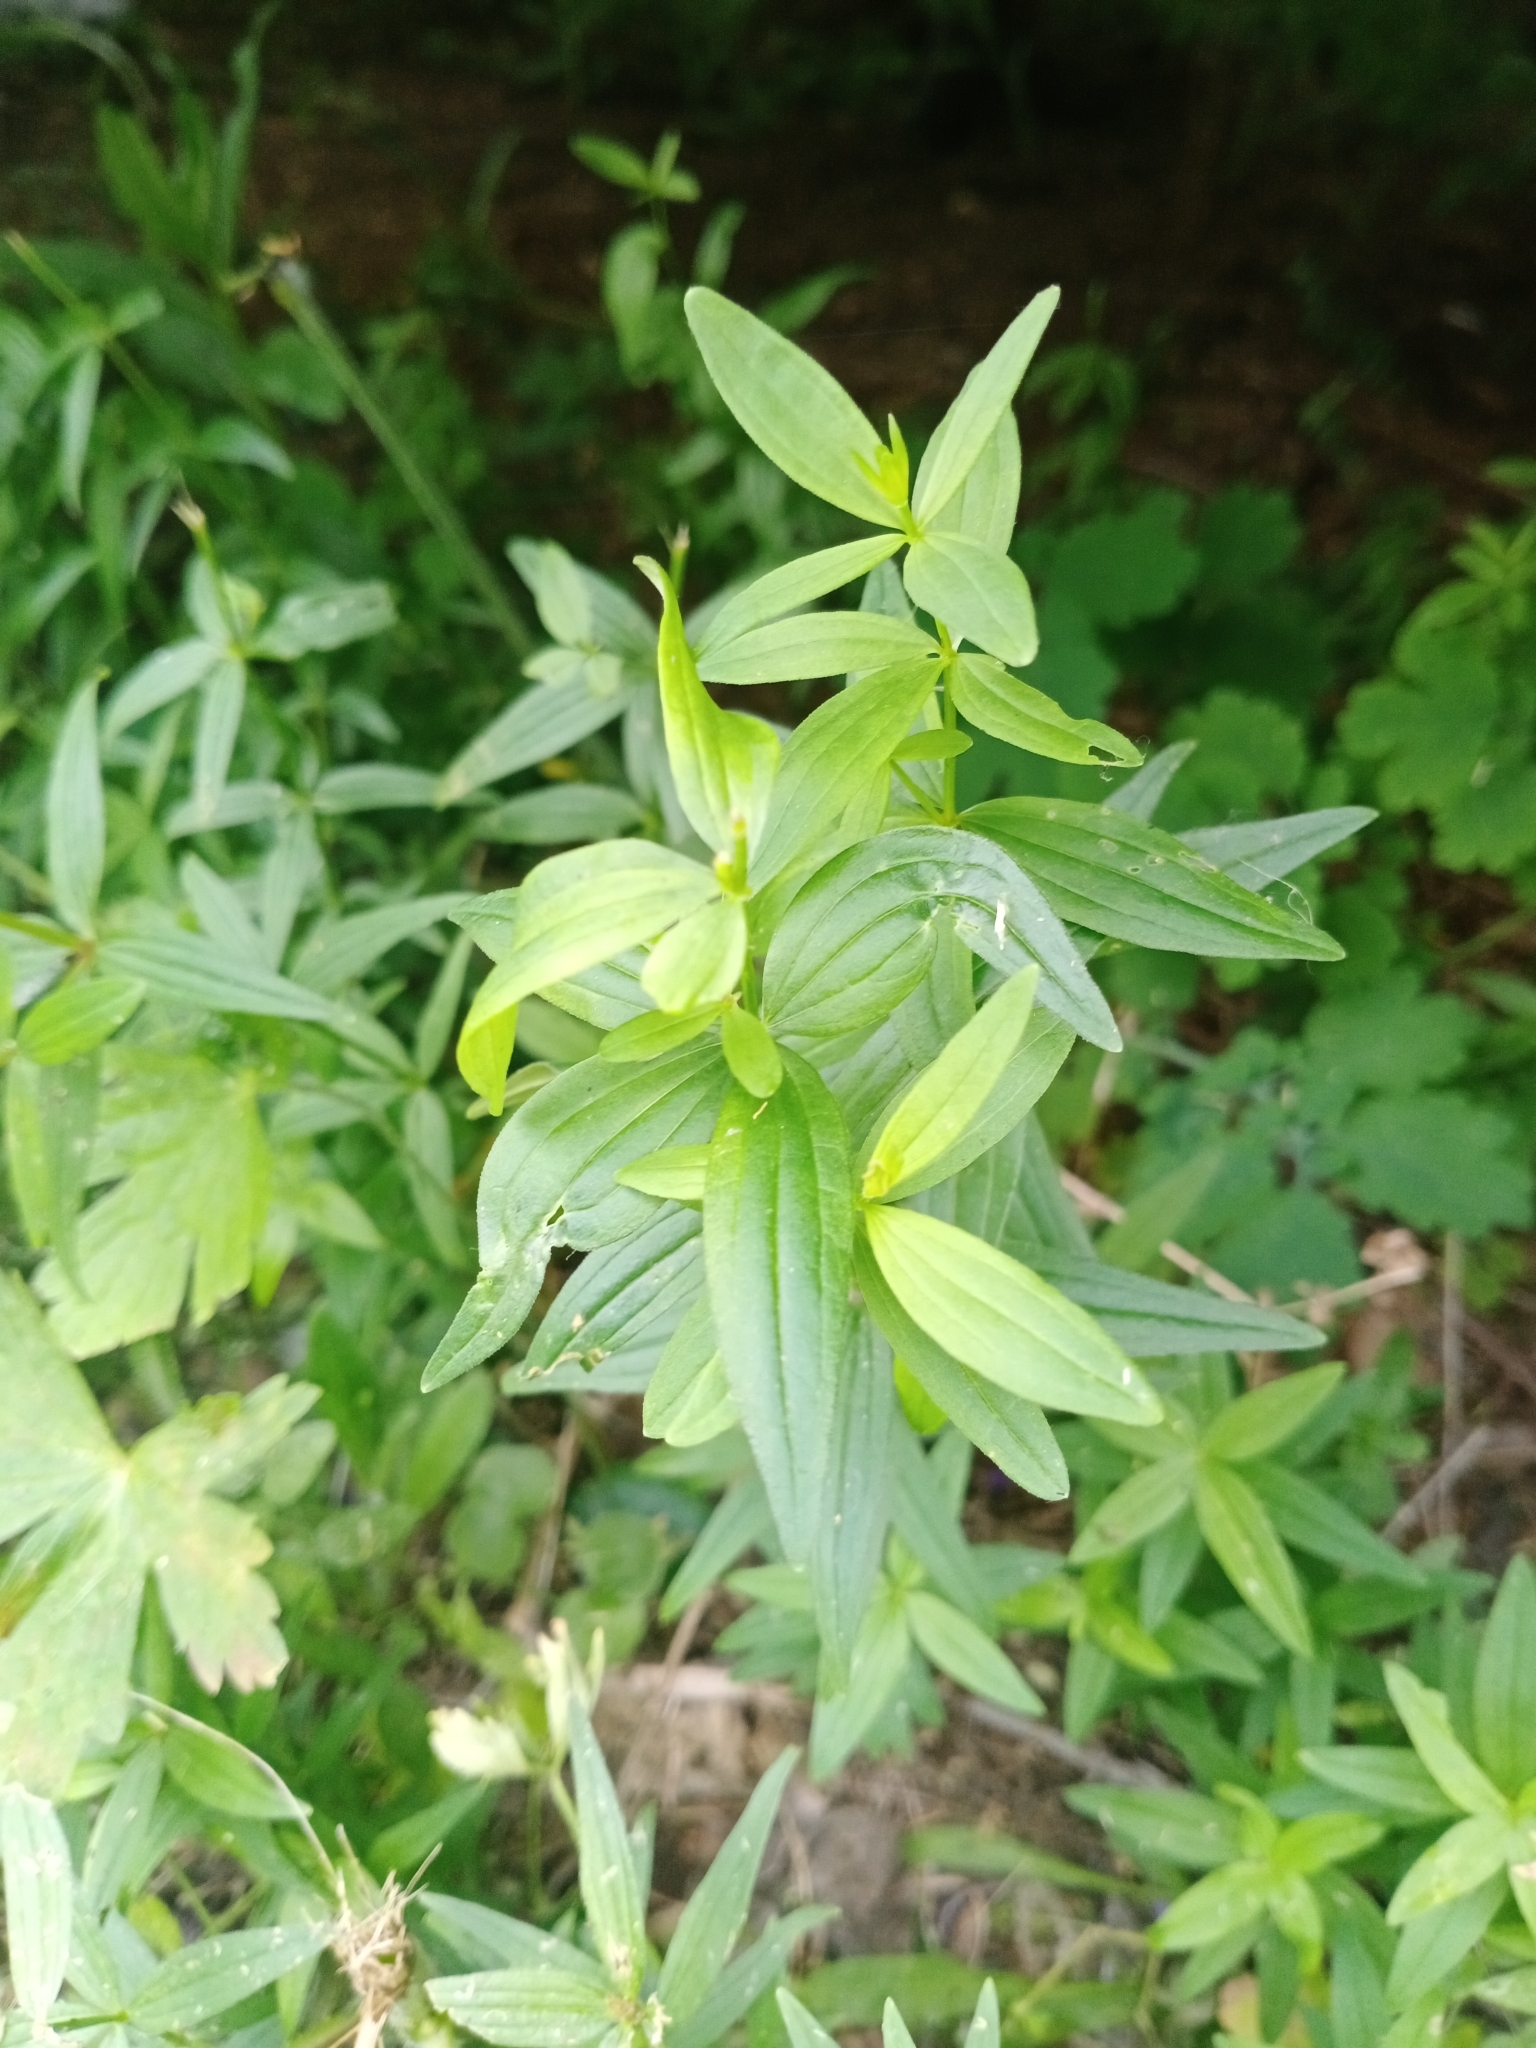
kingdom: Plantae
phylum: Tracheophyta
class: Magnoliopsida
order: Gentianales
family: Rubiaceae
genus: Galium
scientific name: Galium boreale
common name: Northern bedstraw
